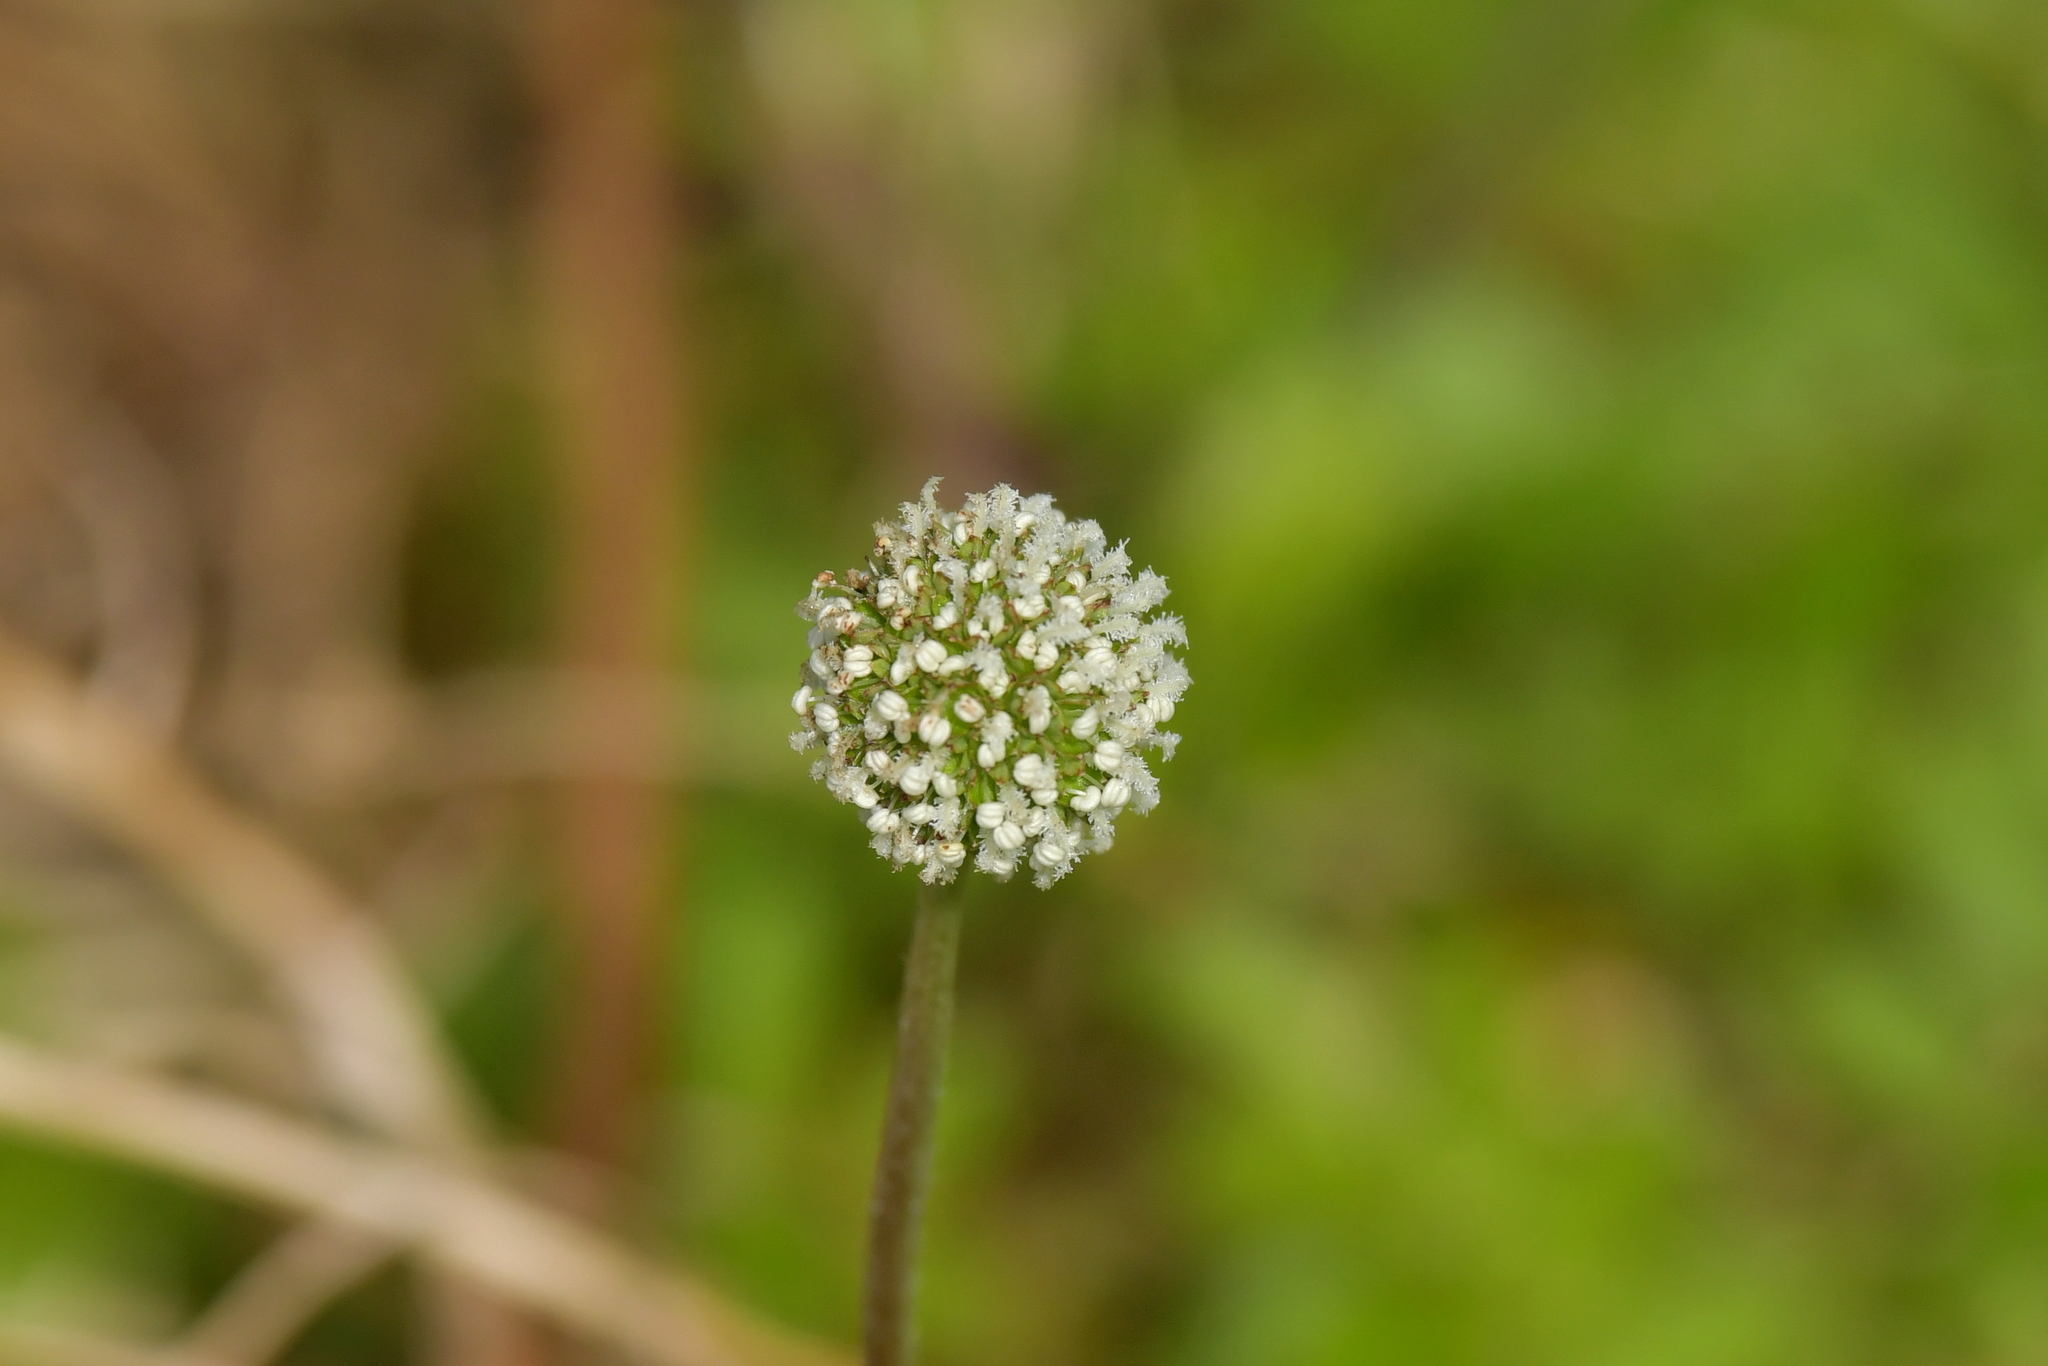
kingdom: Plantae
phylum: Tracheophyta
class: Magnoliopsida
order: Rosales
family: Rosaceae
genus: Acaena
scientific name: Acaena pallida
